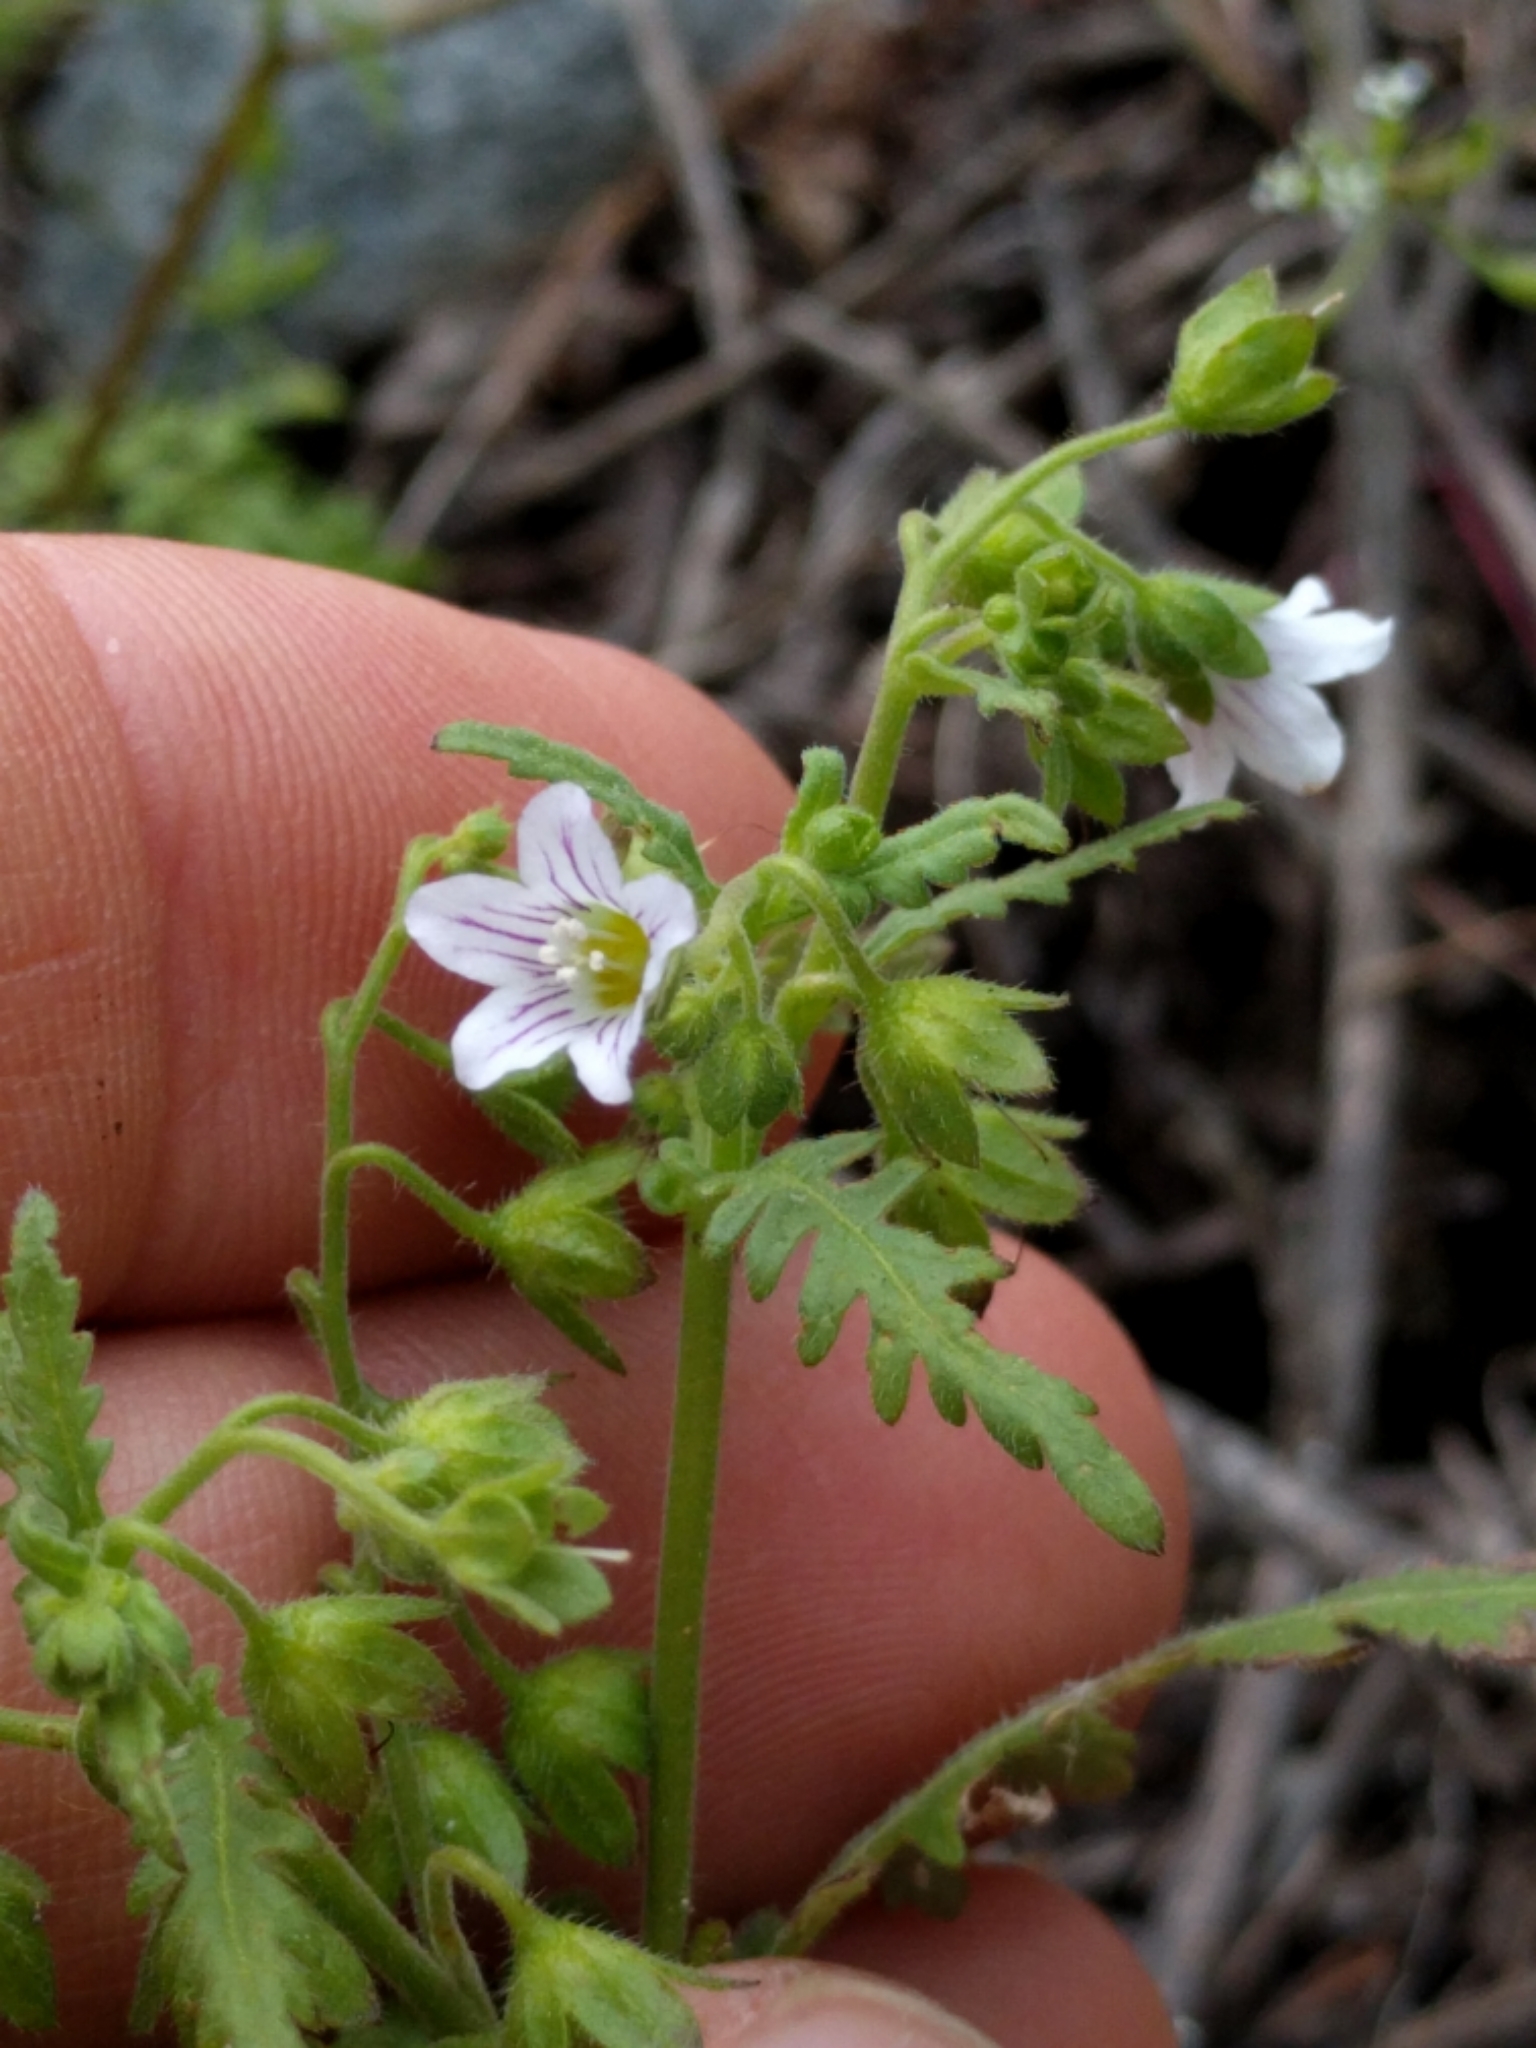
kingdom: Plantae
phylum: Tracheophyta
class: Magnoliopsida
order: Boraginales
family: Hydrophyllaceae
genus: Eucrypta
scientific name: Eucrypta chrysanthemifolia
